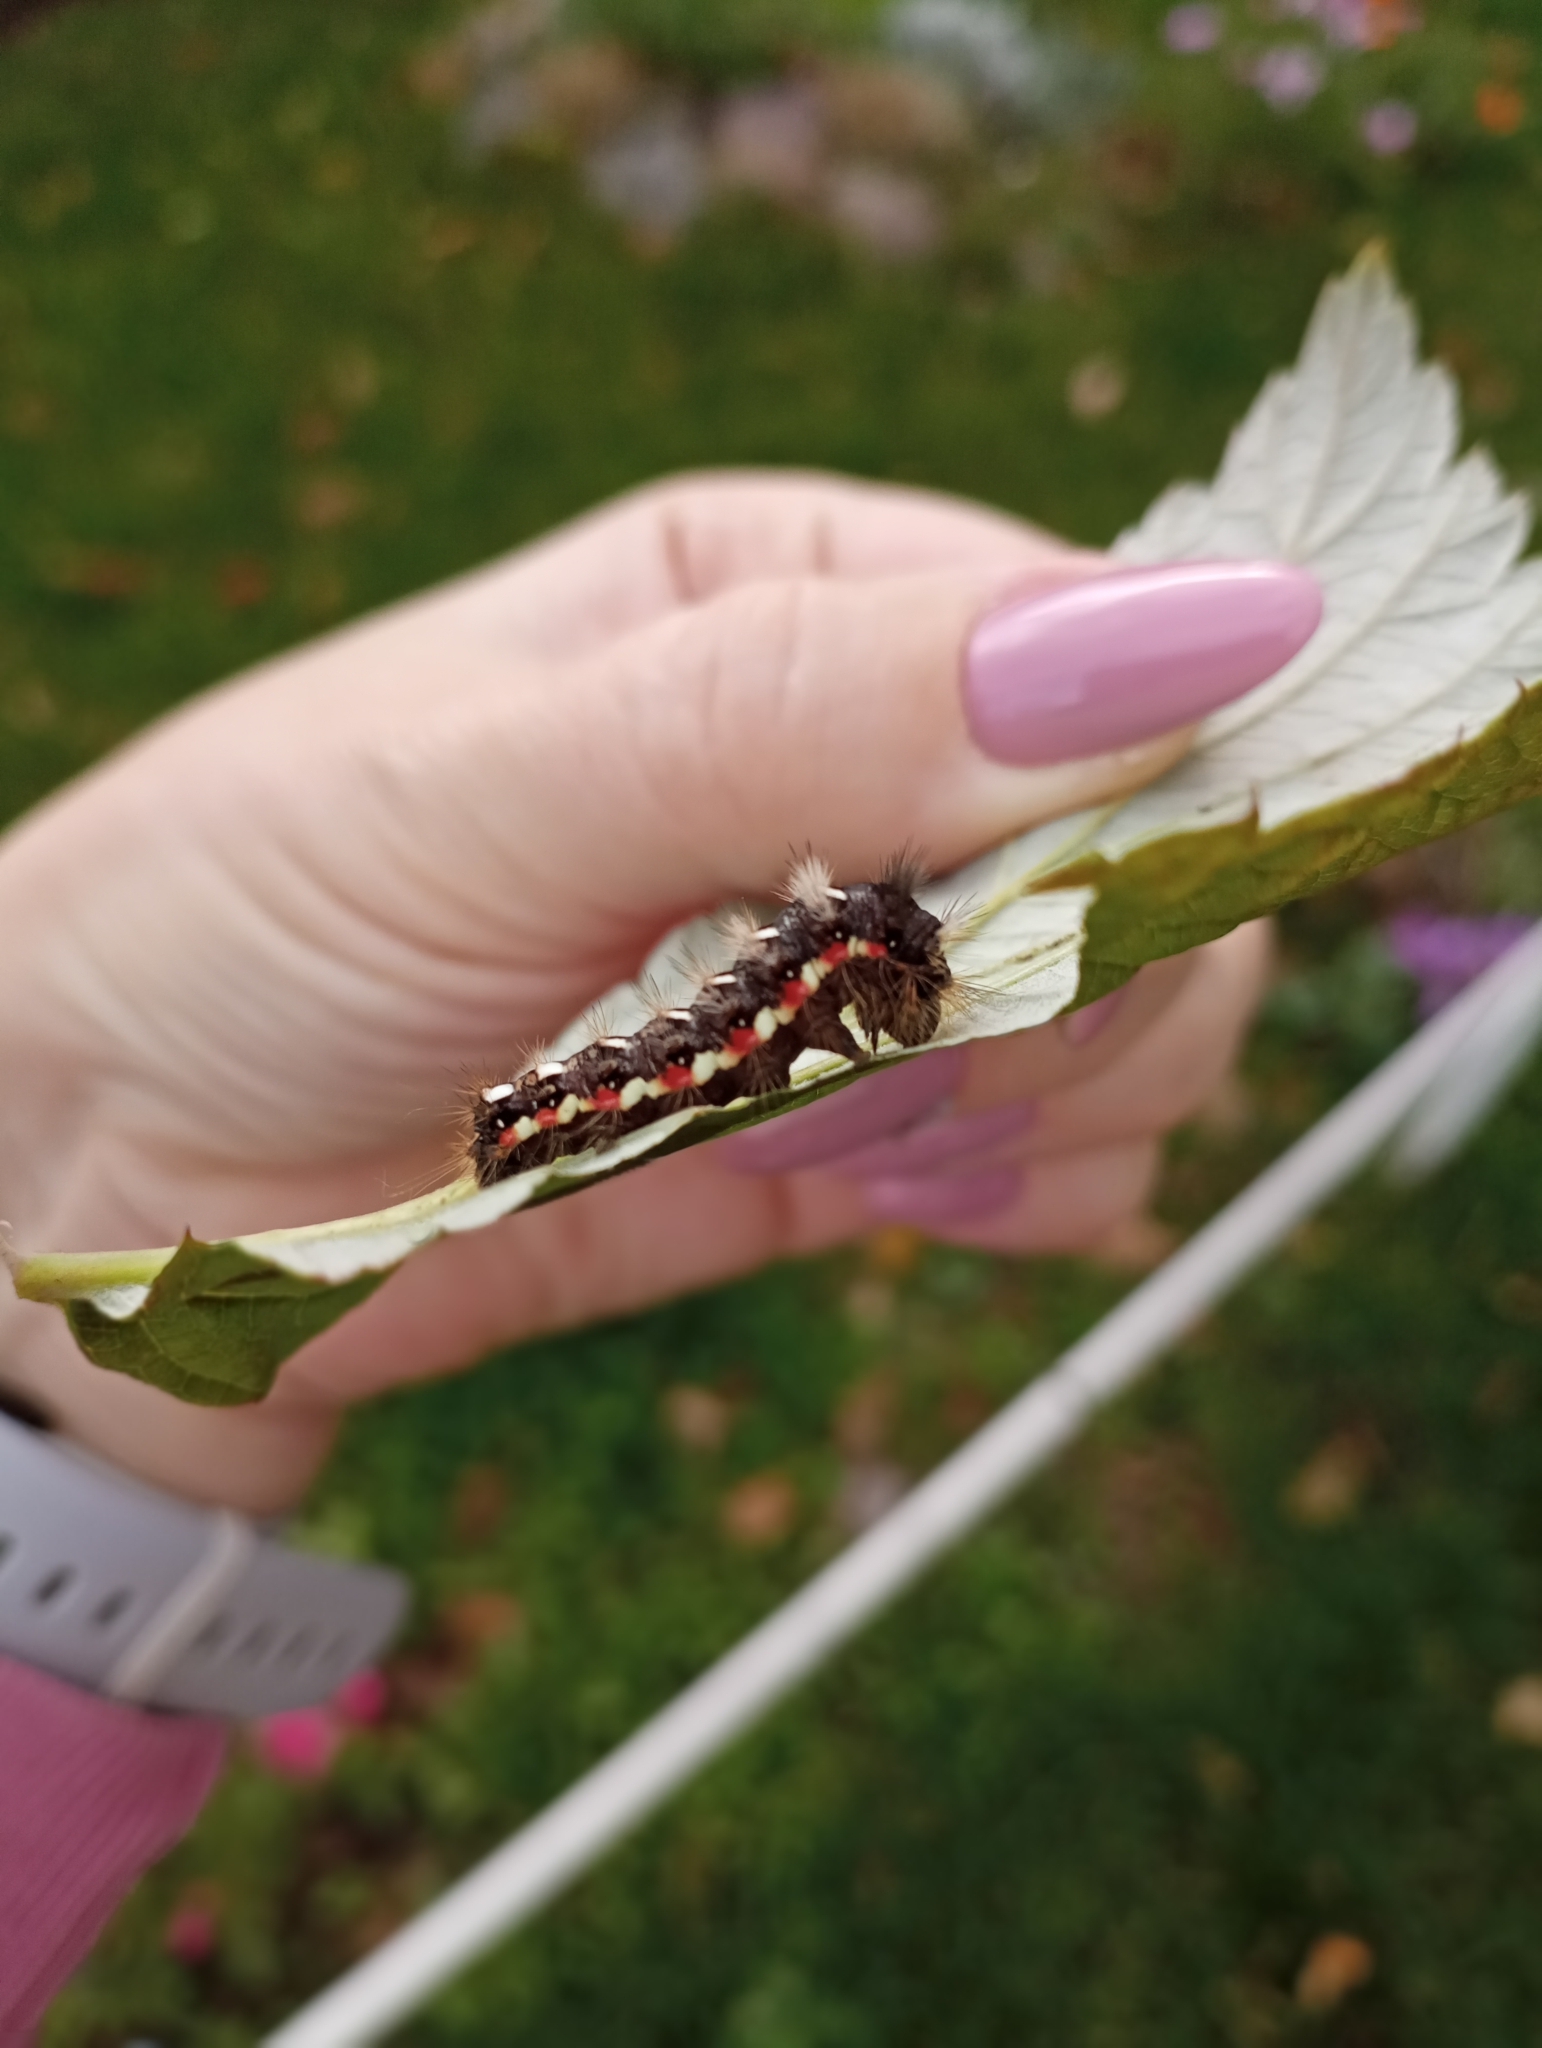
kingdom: Animalia
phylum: Arthropoda
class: Insecta
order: Lepidoptera
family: Noctuidae
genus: Acronicta
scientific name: Acronicta rumicis
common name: Knot grass
